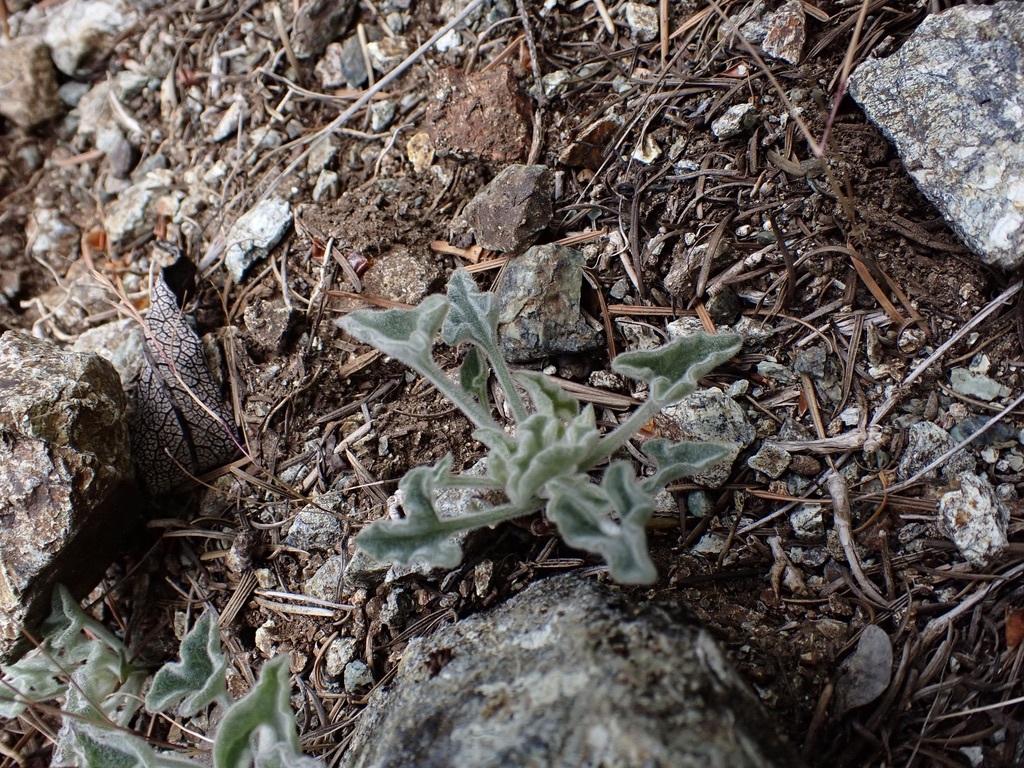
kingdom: Plantae
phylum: Tracheophyta
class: Magnoliopsida
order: Solanales
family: Convolvulaceae
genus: Calystegia
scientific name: Calystegia collina
